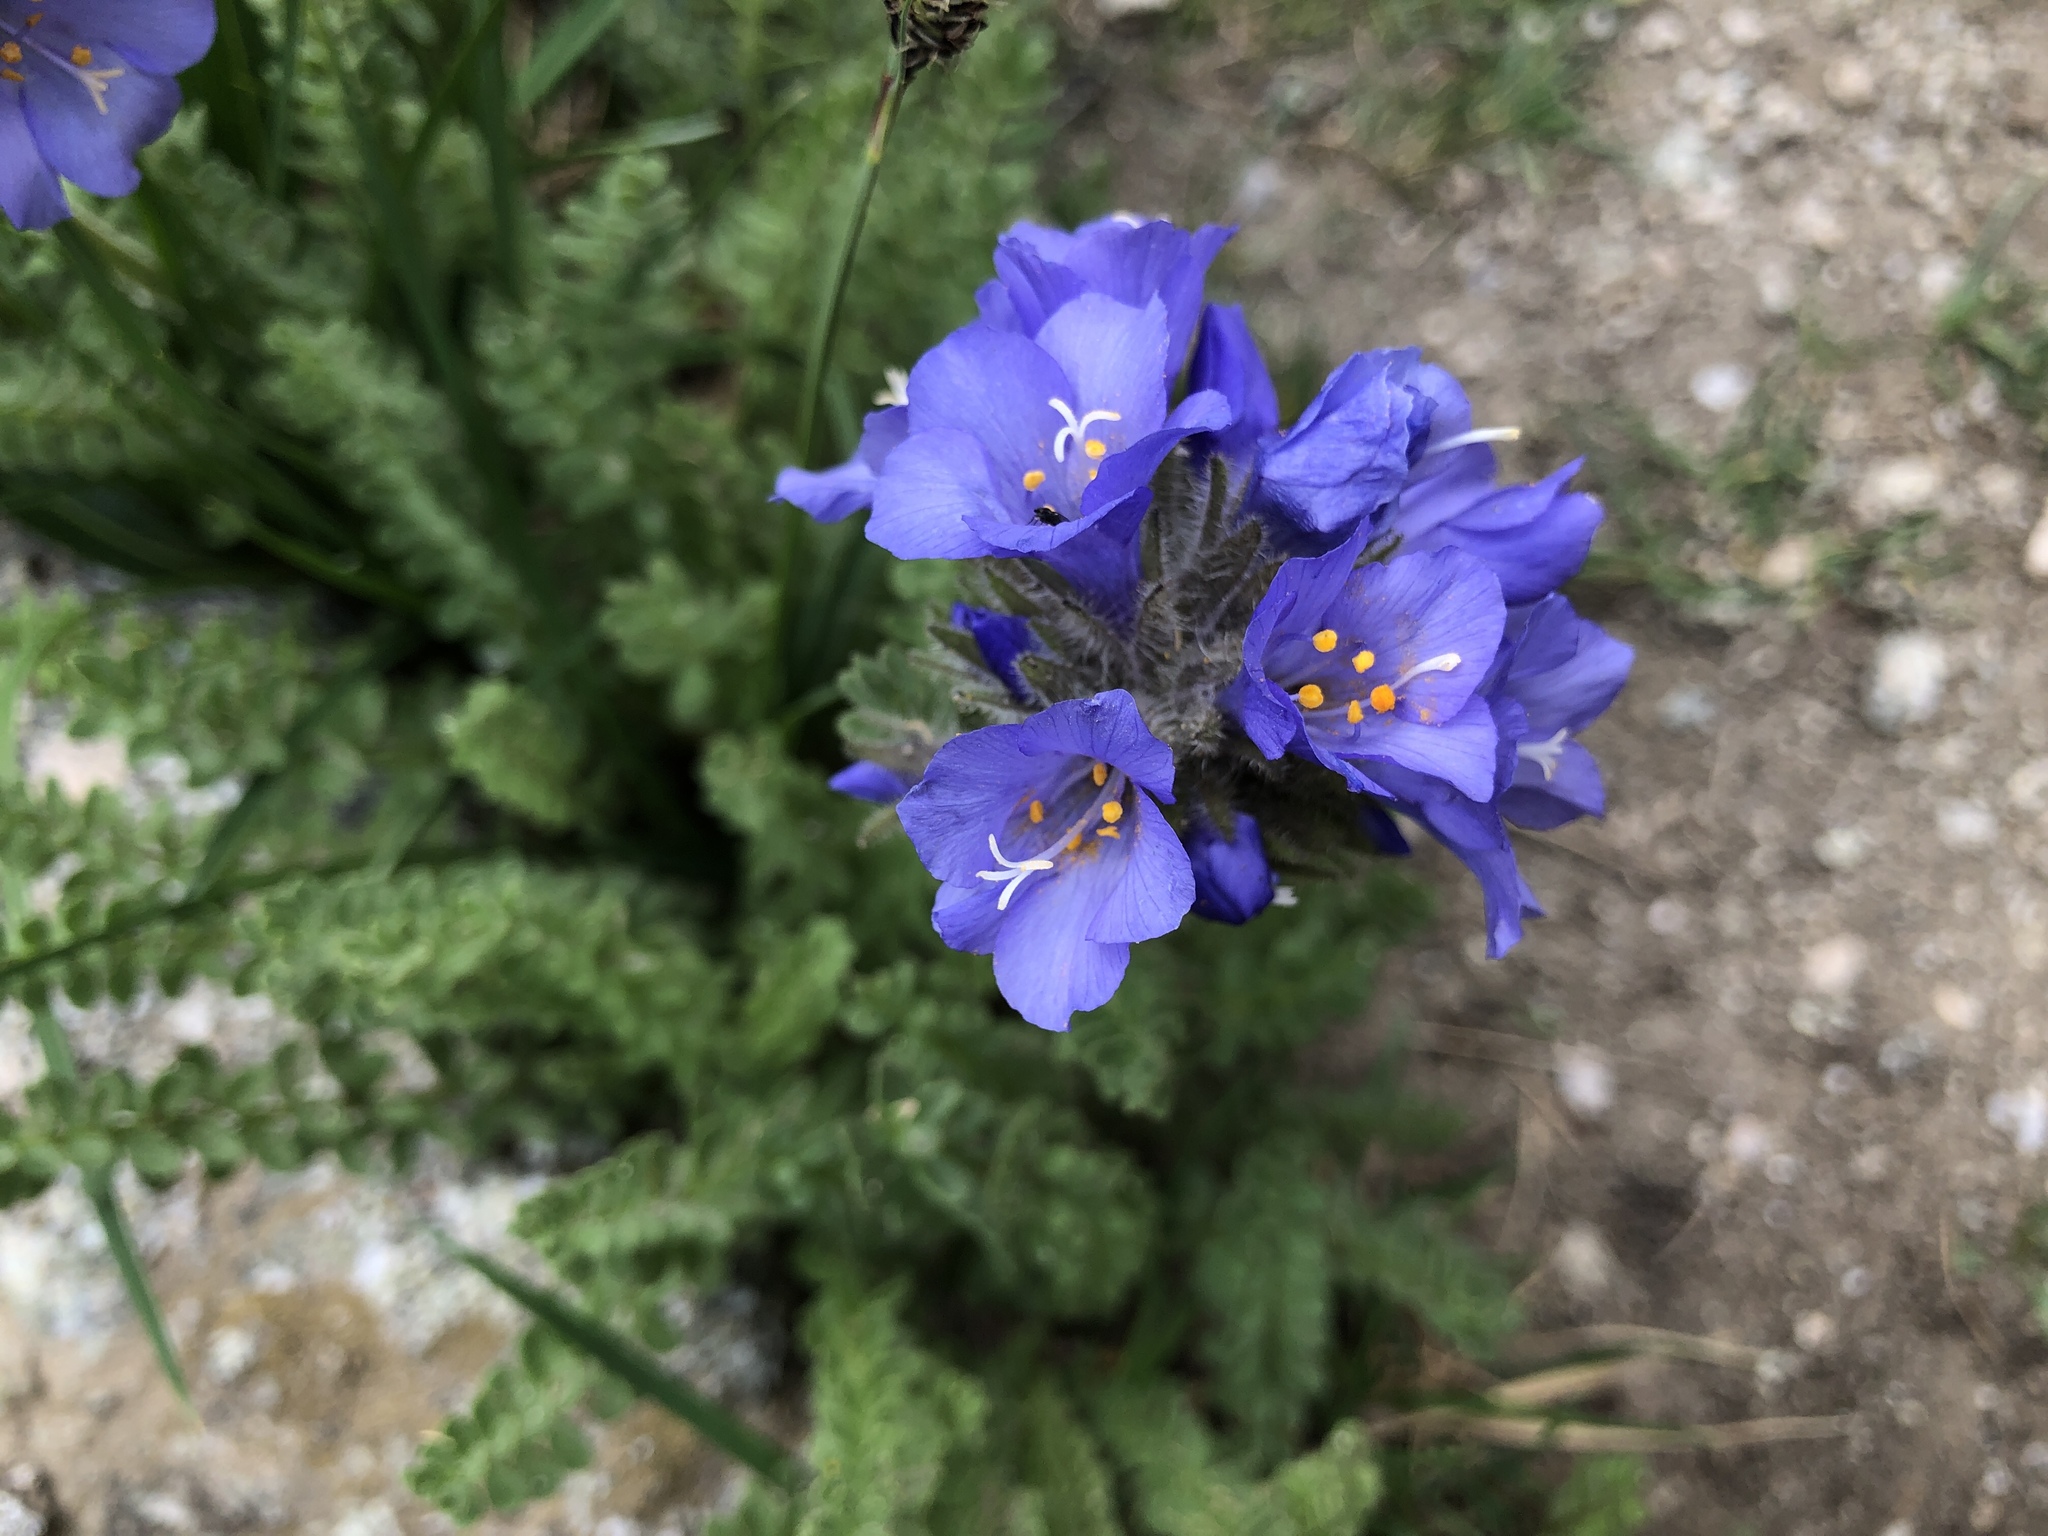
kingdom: Plantae
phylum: Tracheophyta
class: Magnoliopsida
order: Ericales
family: Polemoniaceae
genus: Polemonium
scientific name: Polemonium viscosum
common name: Skunk jacob's-ladder
